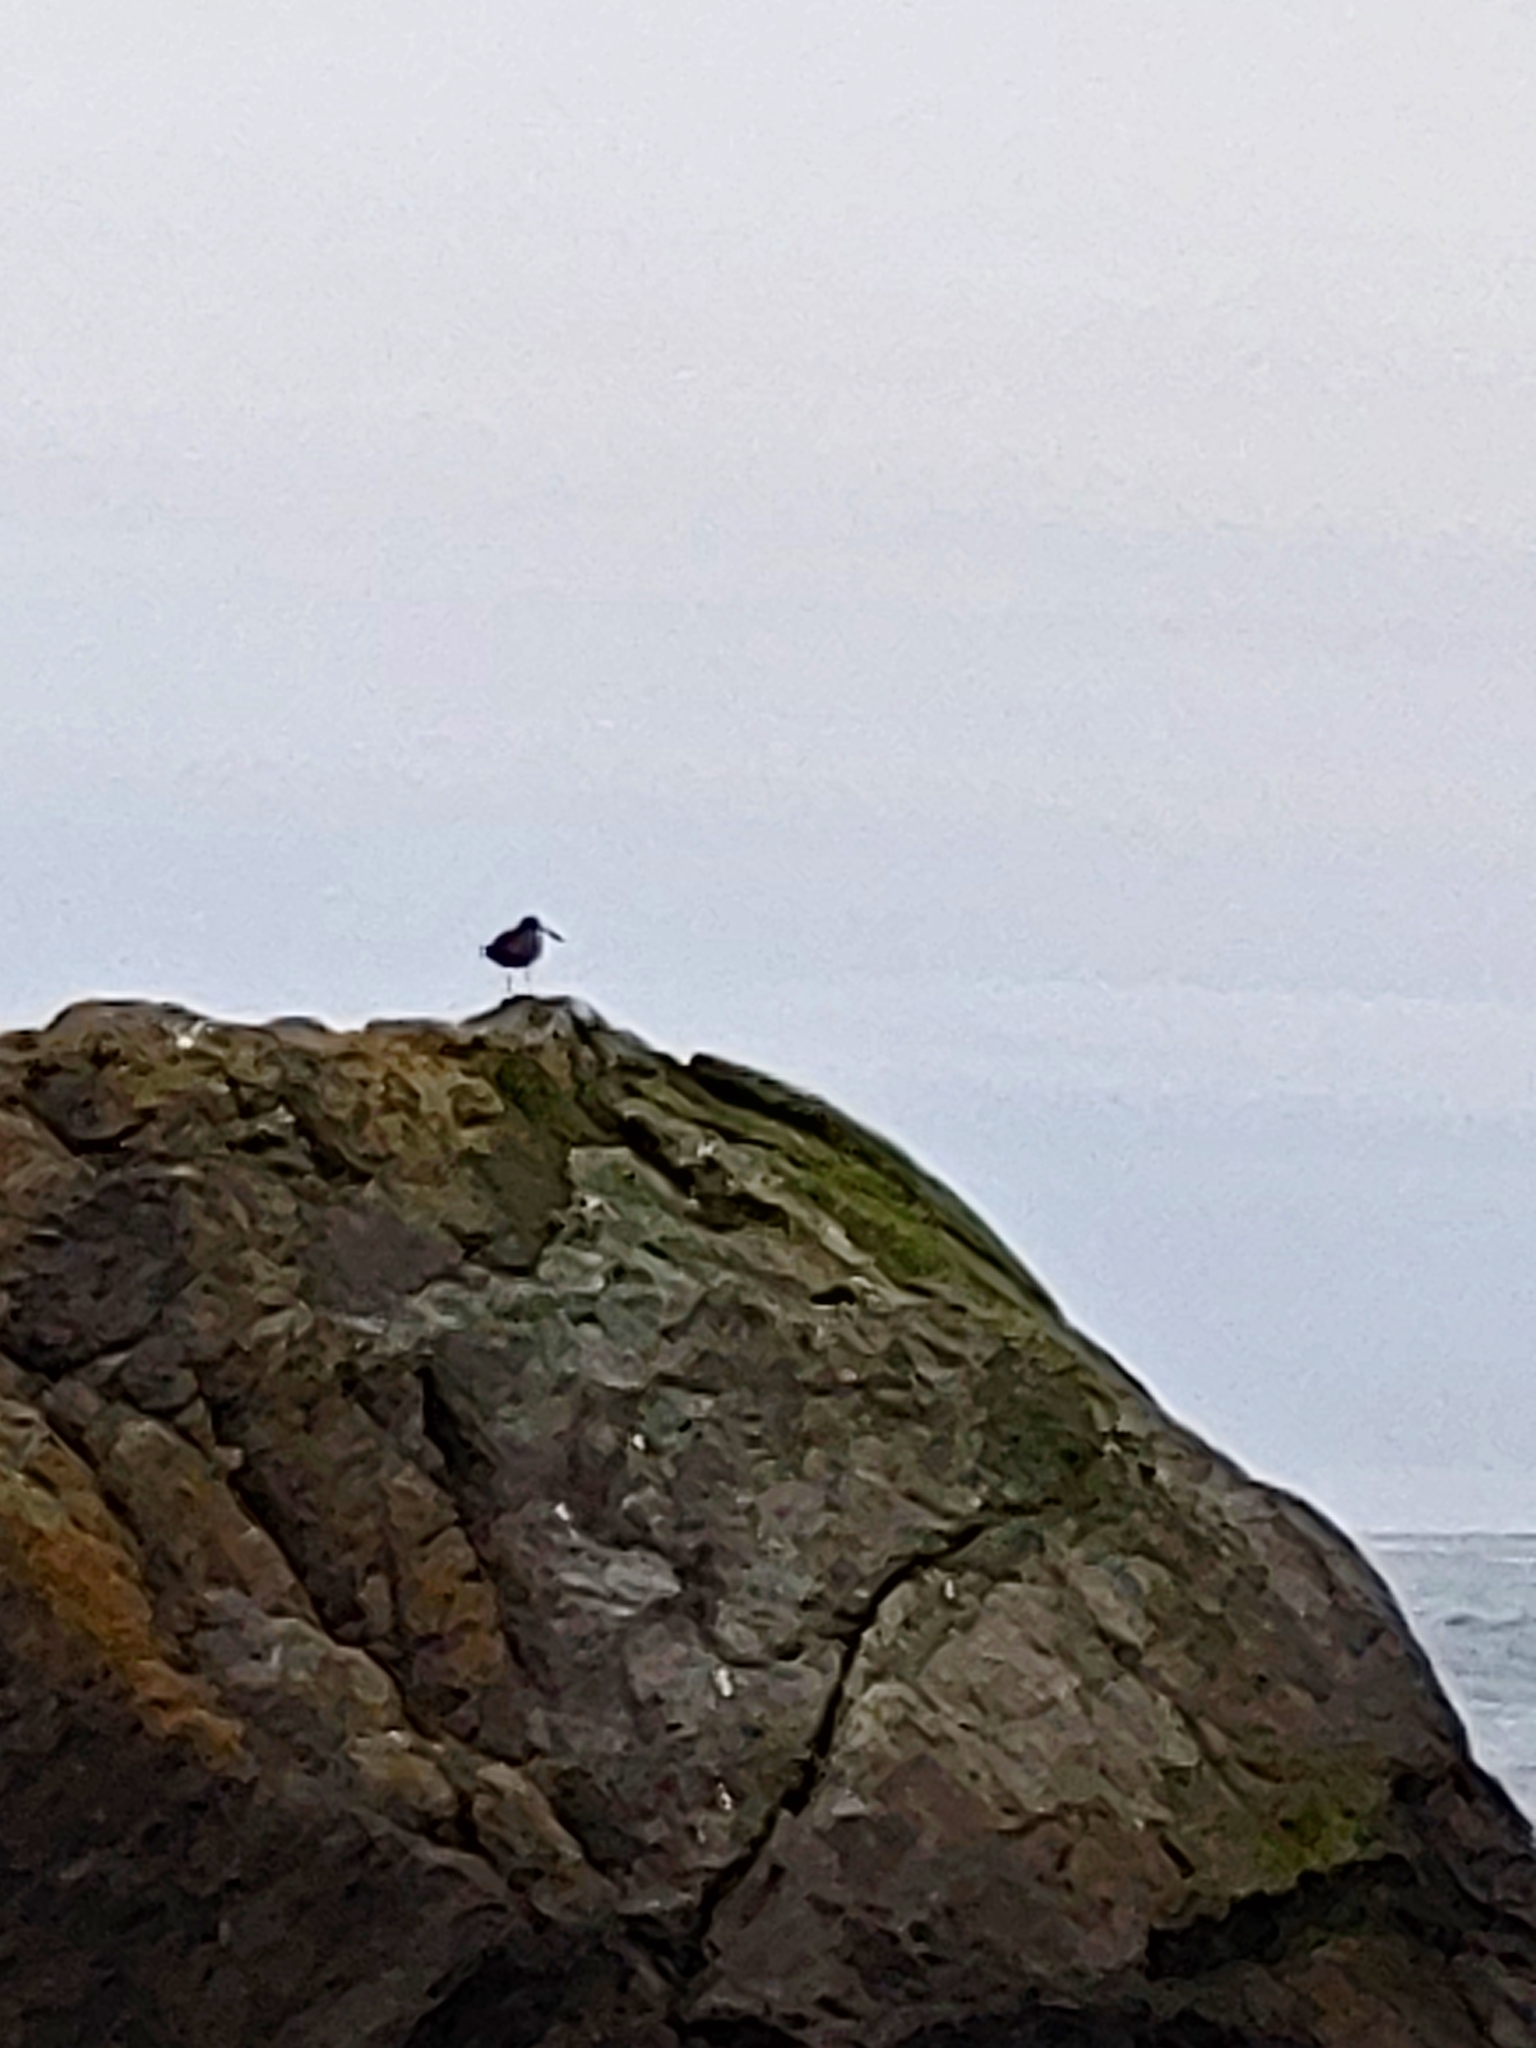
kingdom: Animalia
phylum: Chordata
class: Aves
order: Charadriiformes
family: Haematopodidae
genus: Haematopus
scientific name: Haematopus bachmani
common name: Black oystercatcher
